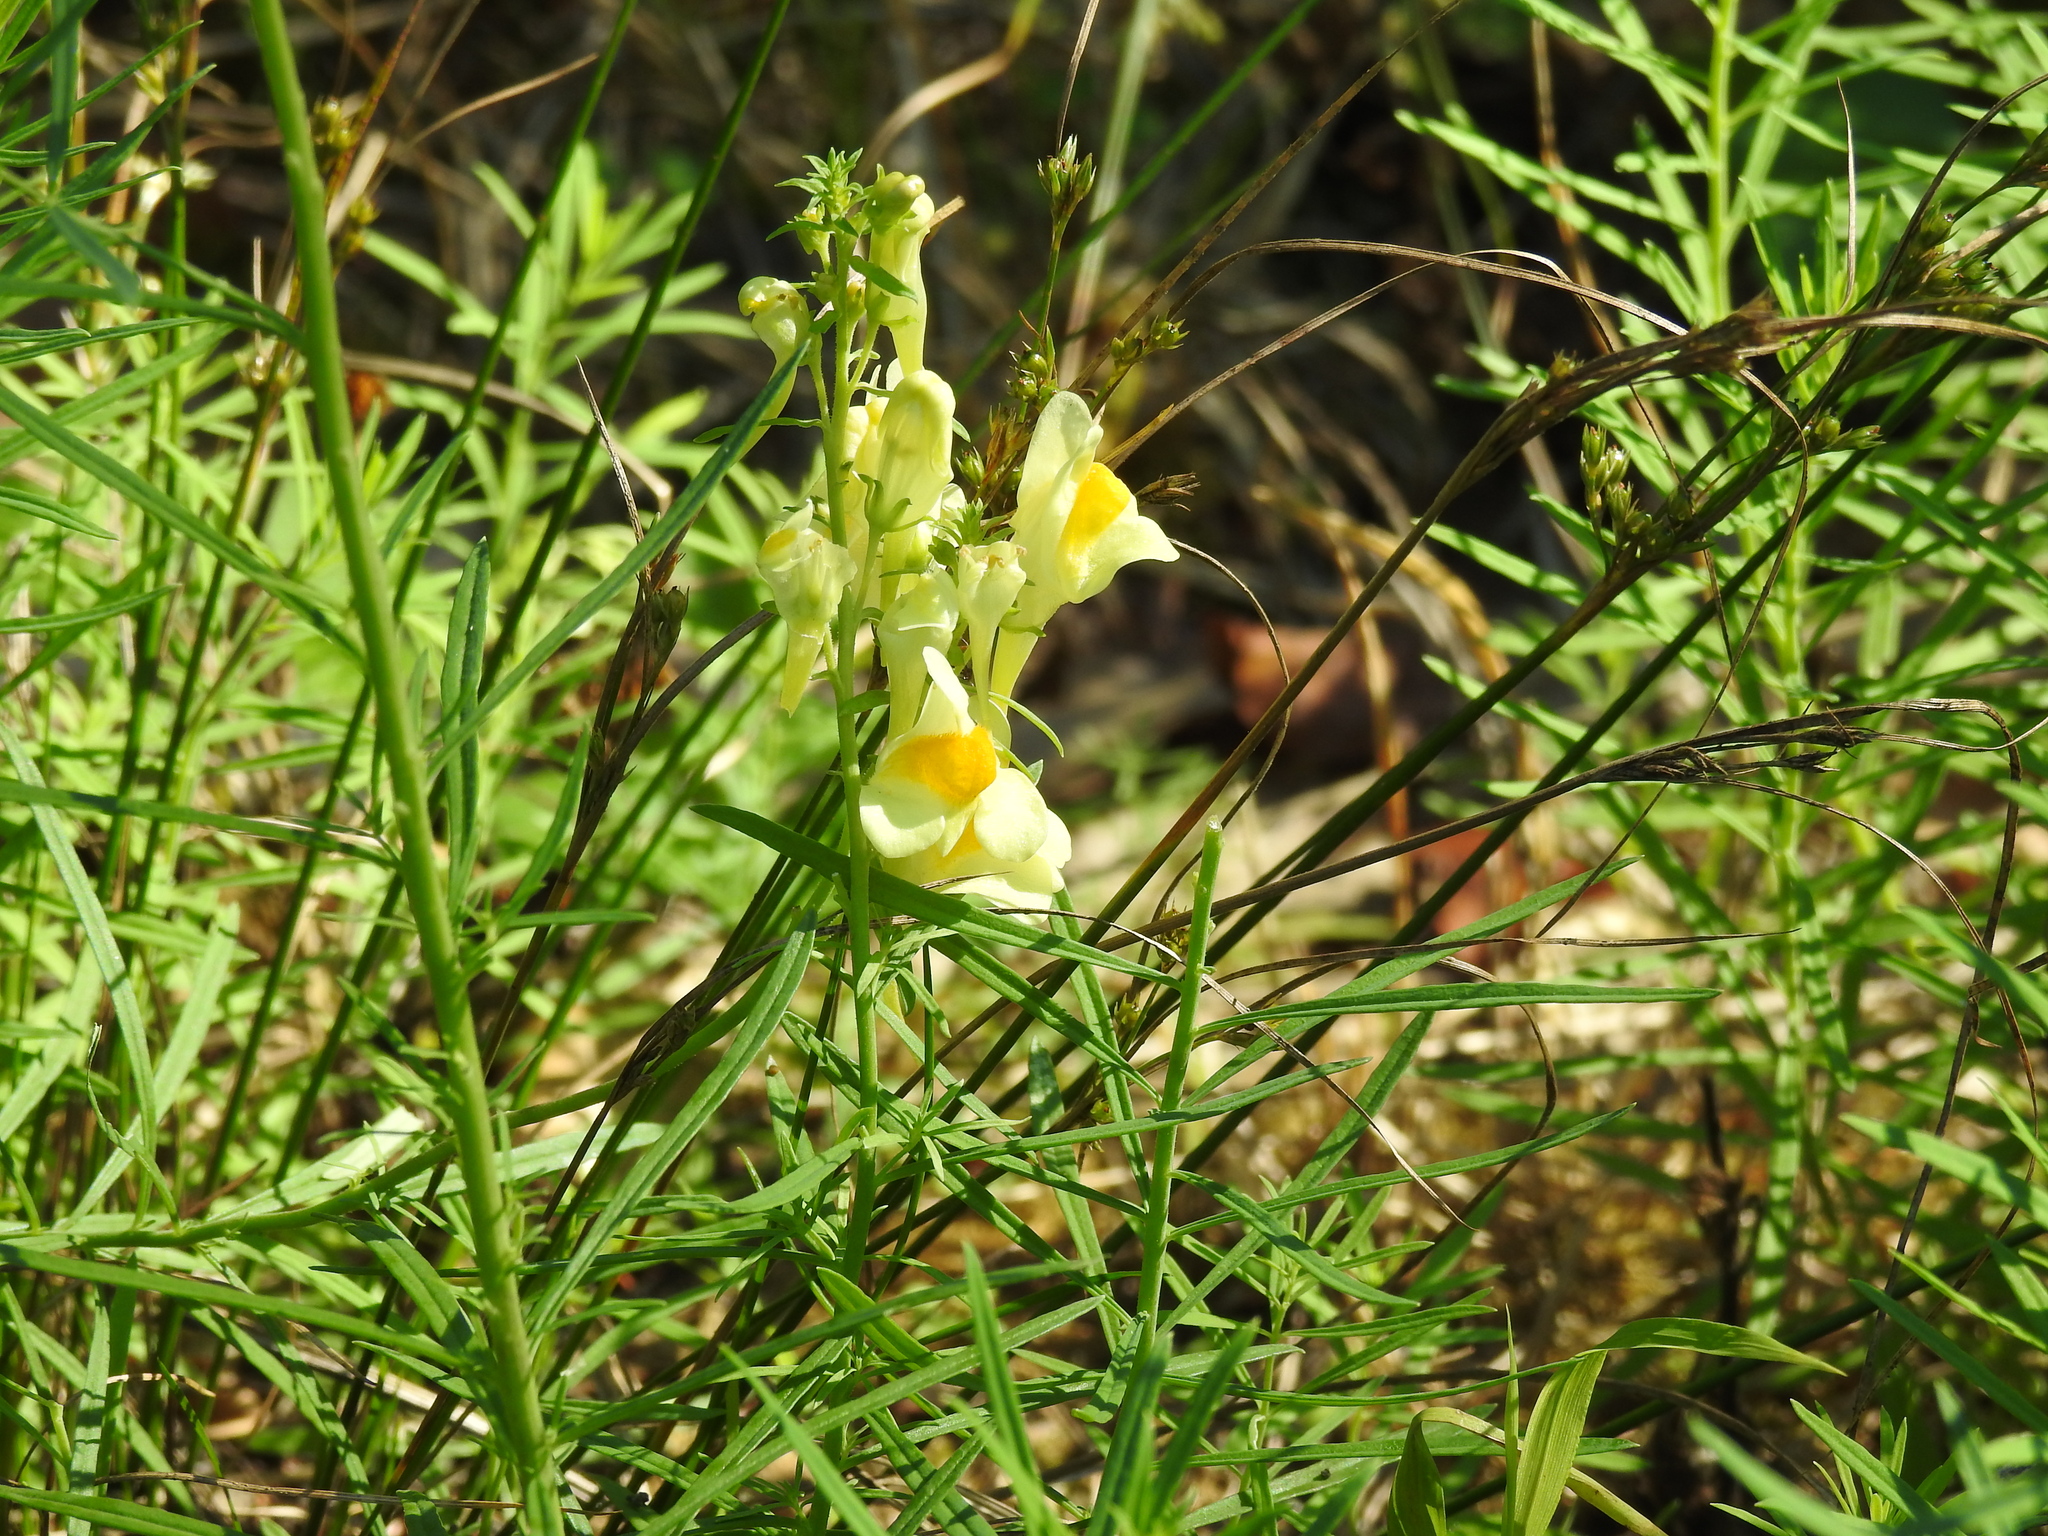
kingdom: Plantae
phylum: Tracheophyta
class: Magnoliopsida
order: Lamiales
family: Plantaginaceae
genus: Linaria
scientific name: Linaria vulgaris
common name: Butter and eggs
